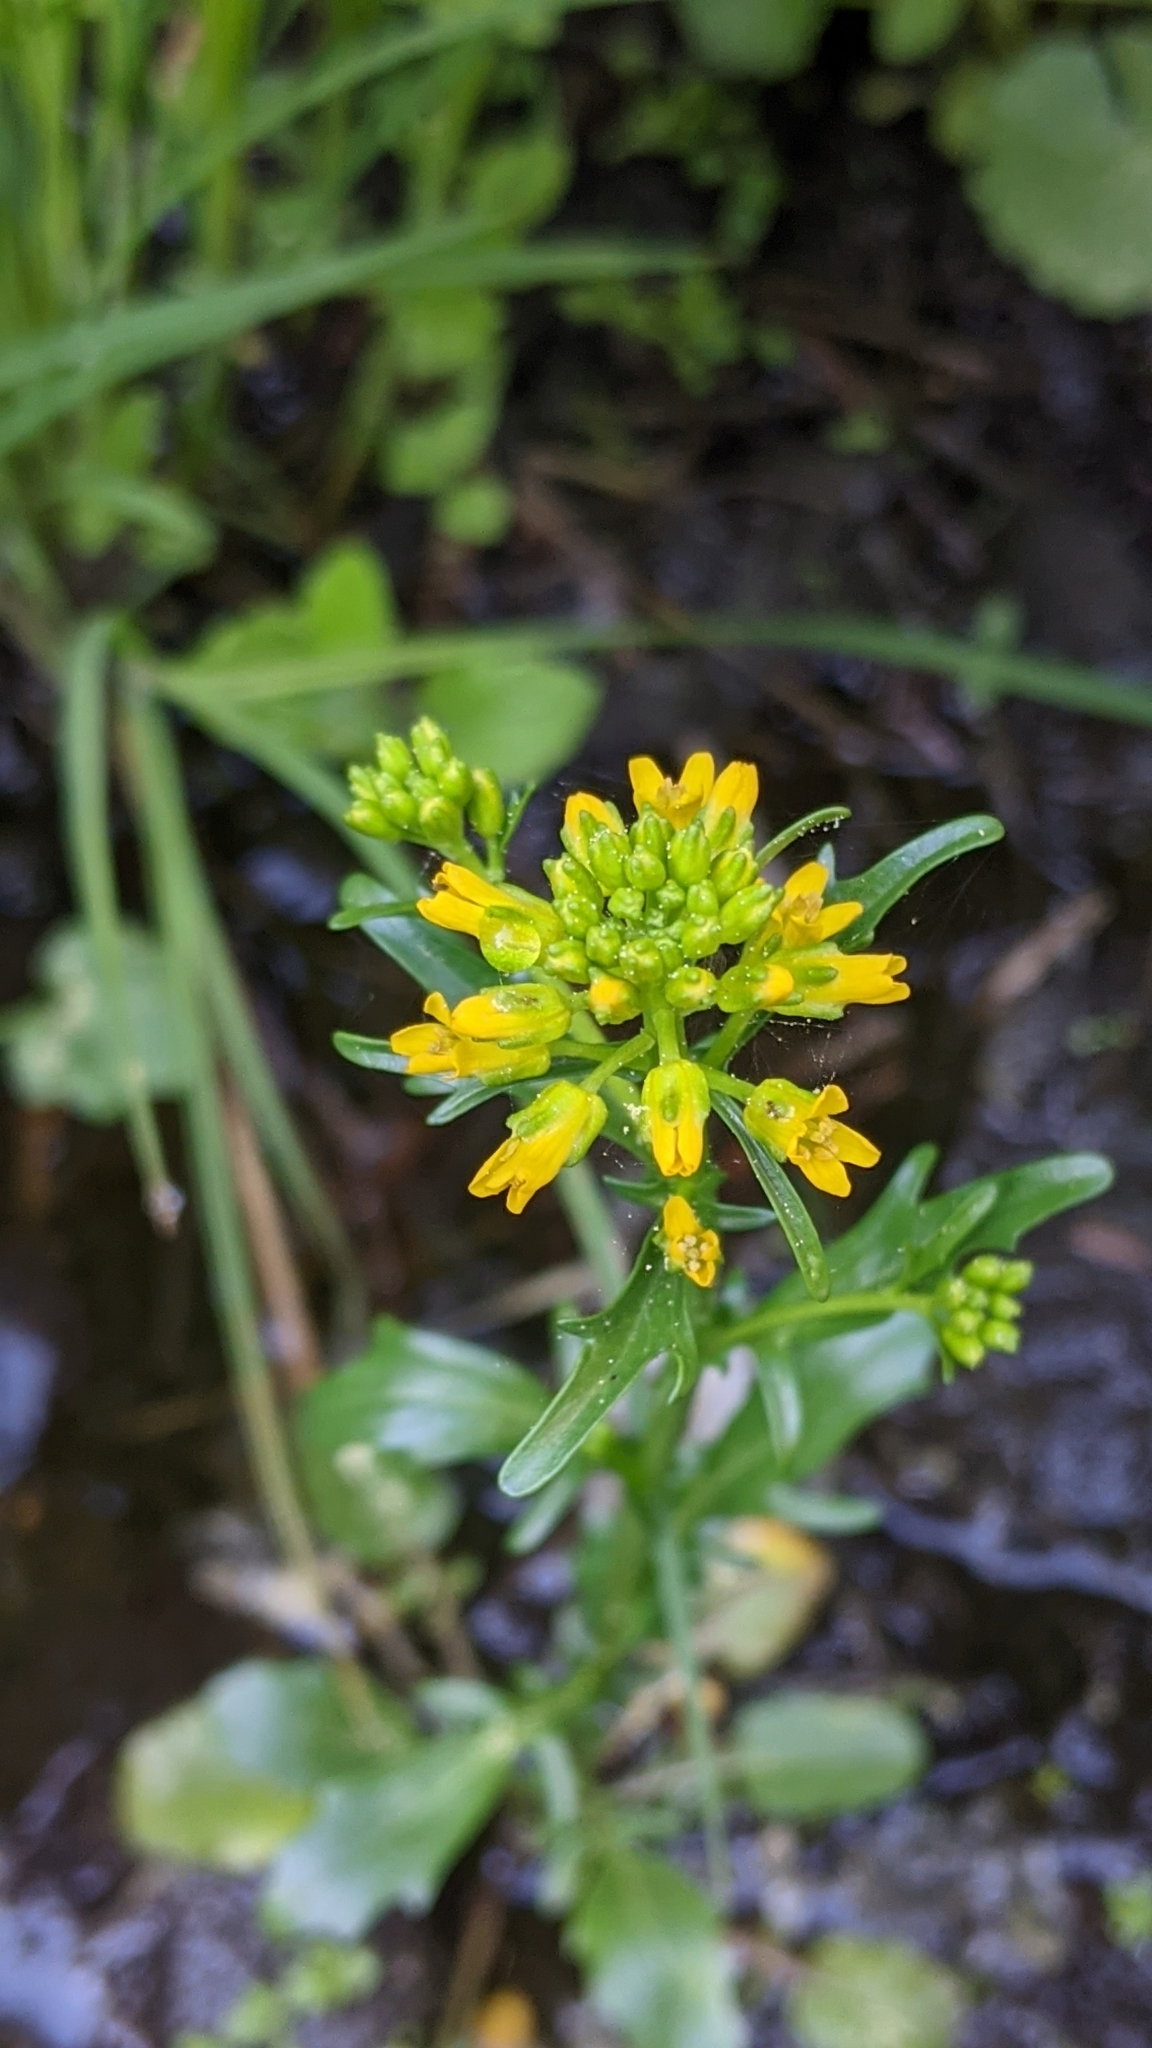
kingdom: Plantae
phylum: Tracheophyta
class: Magnoliopsida
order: Brassicales
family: Brassicaceae
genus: Barbarea
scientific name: Barbarea orthoceras
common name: American wintercress
